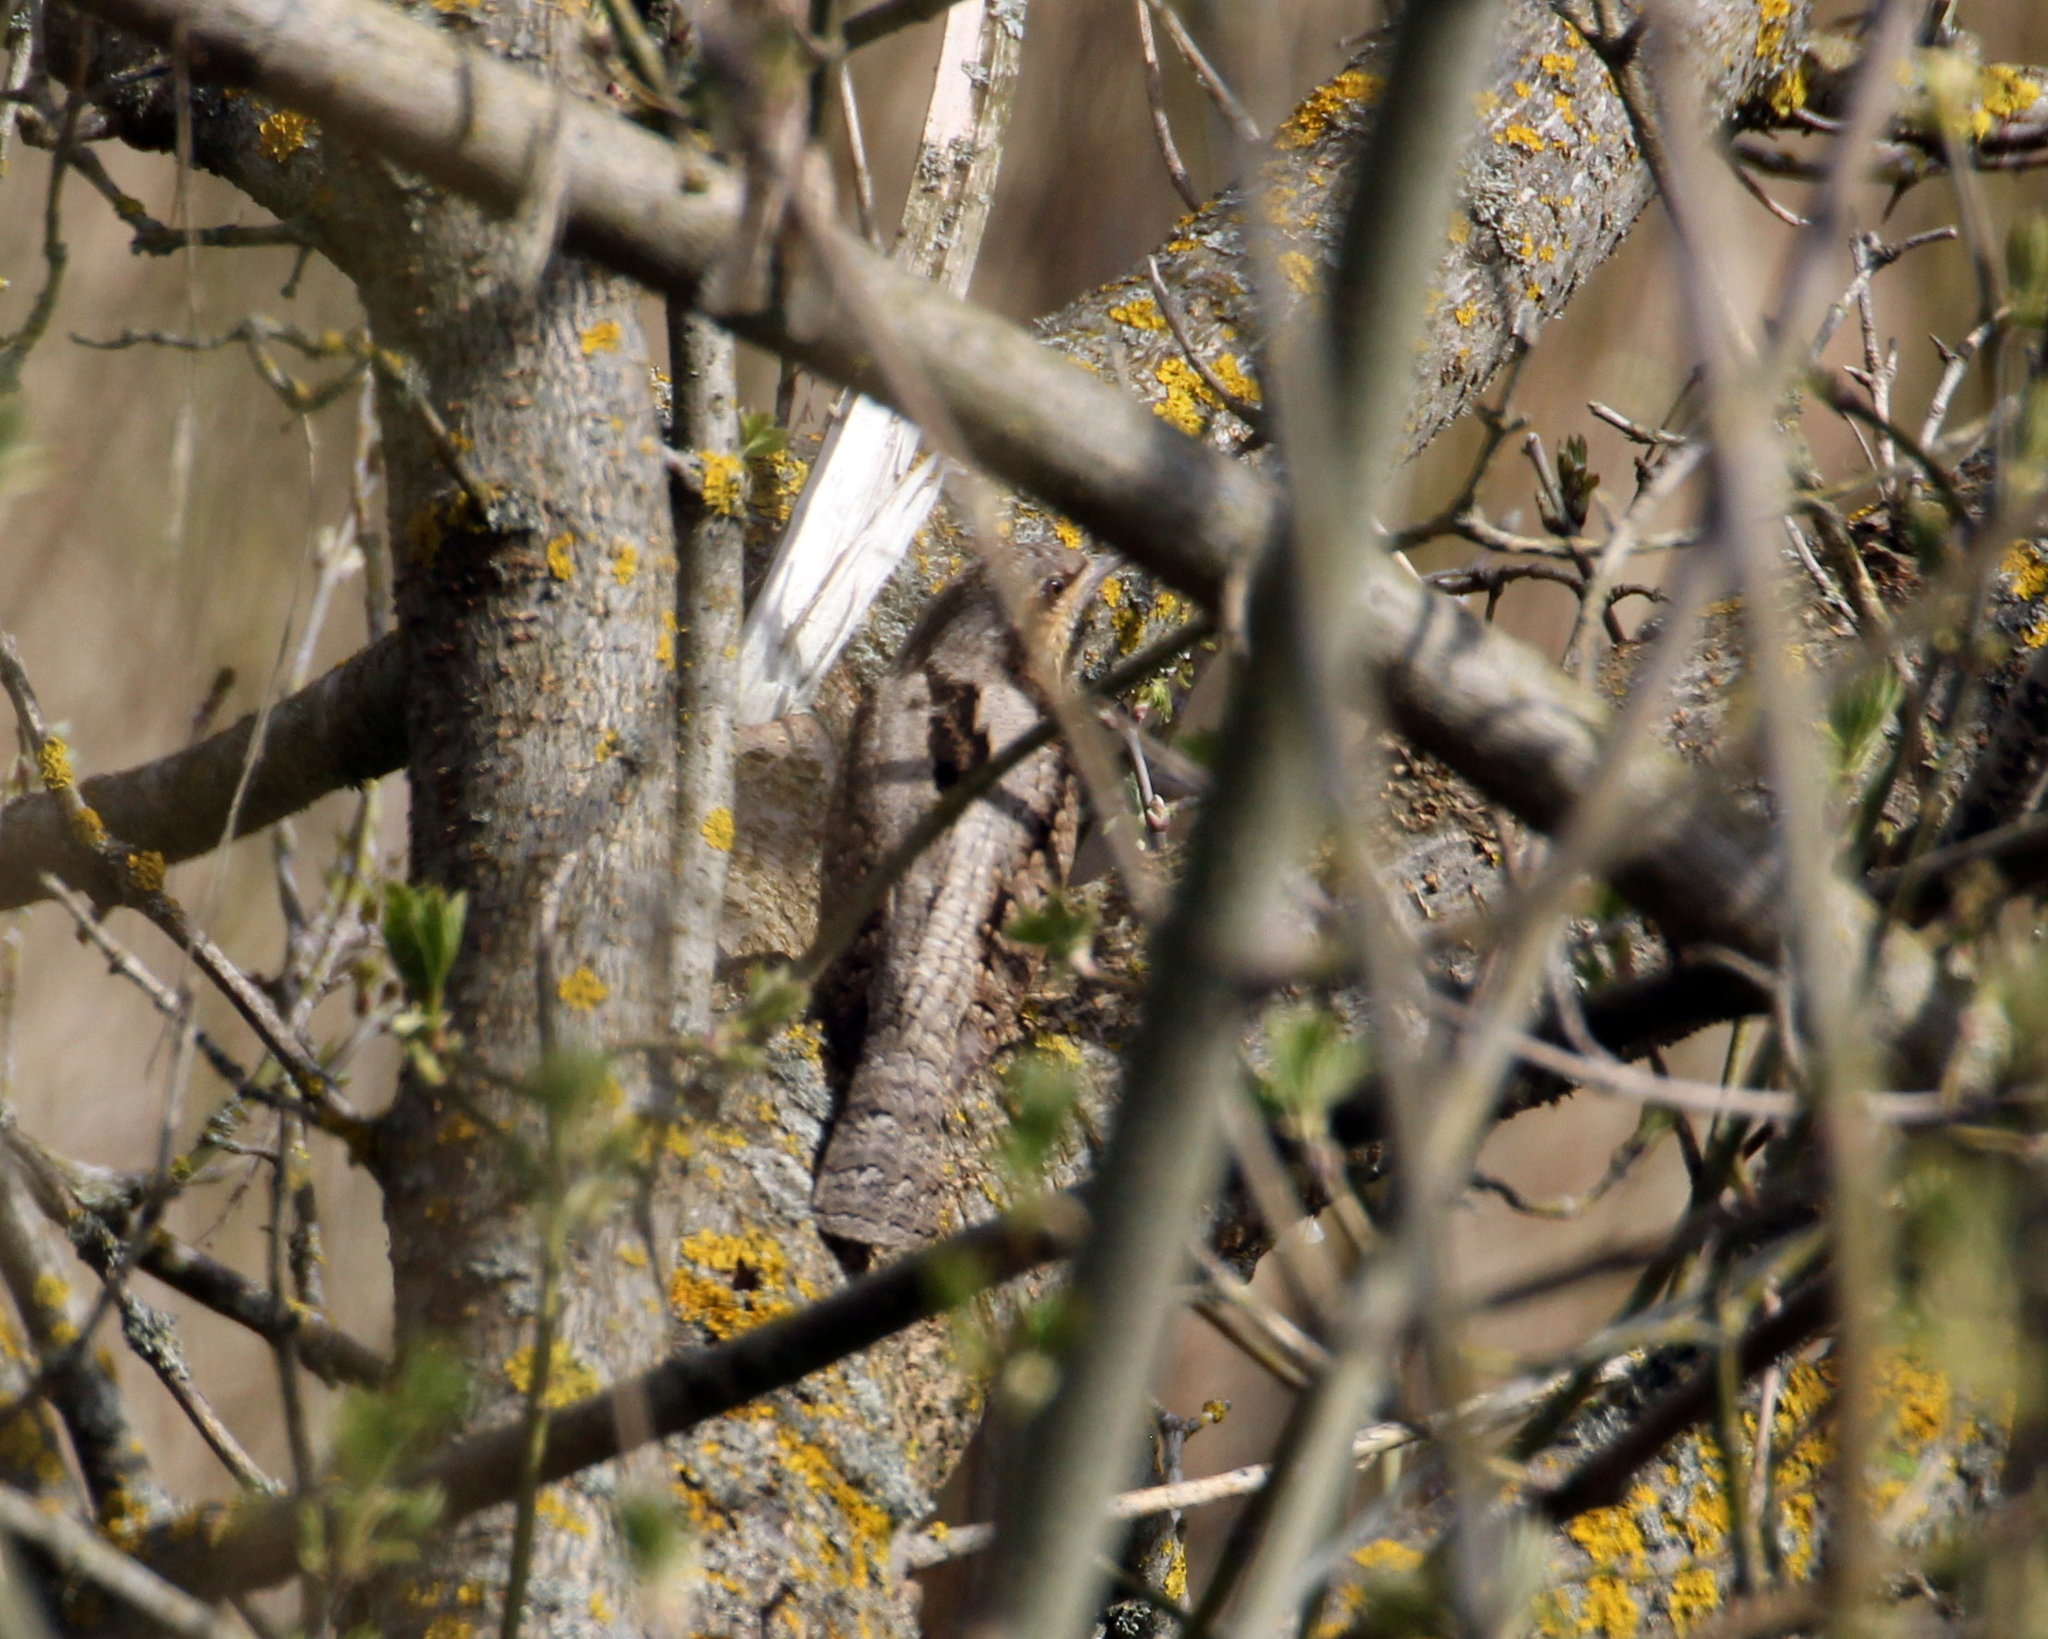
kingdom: Animalia
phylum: Chordata
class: Aves
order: Piciformes
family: Picidae
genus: Jynx
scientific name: Jynx torquilla
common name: Eurasian wryneck
